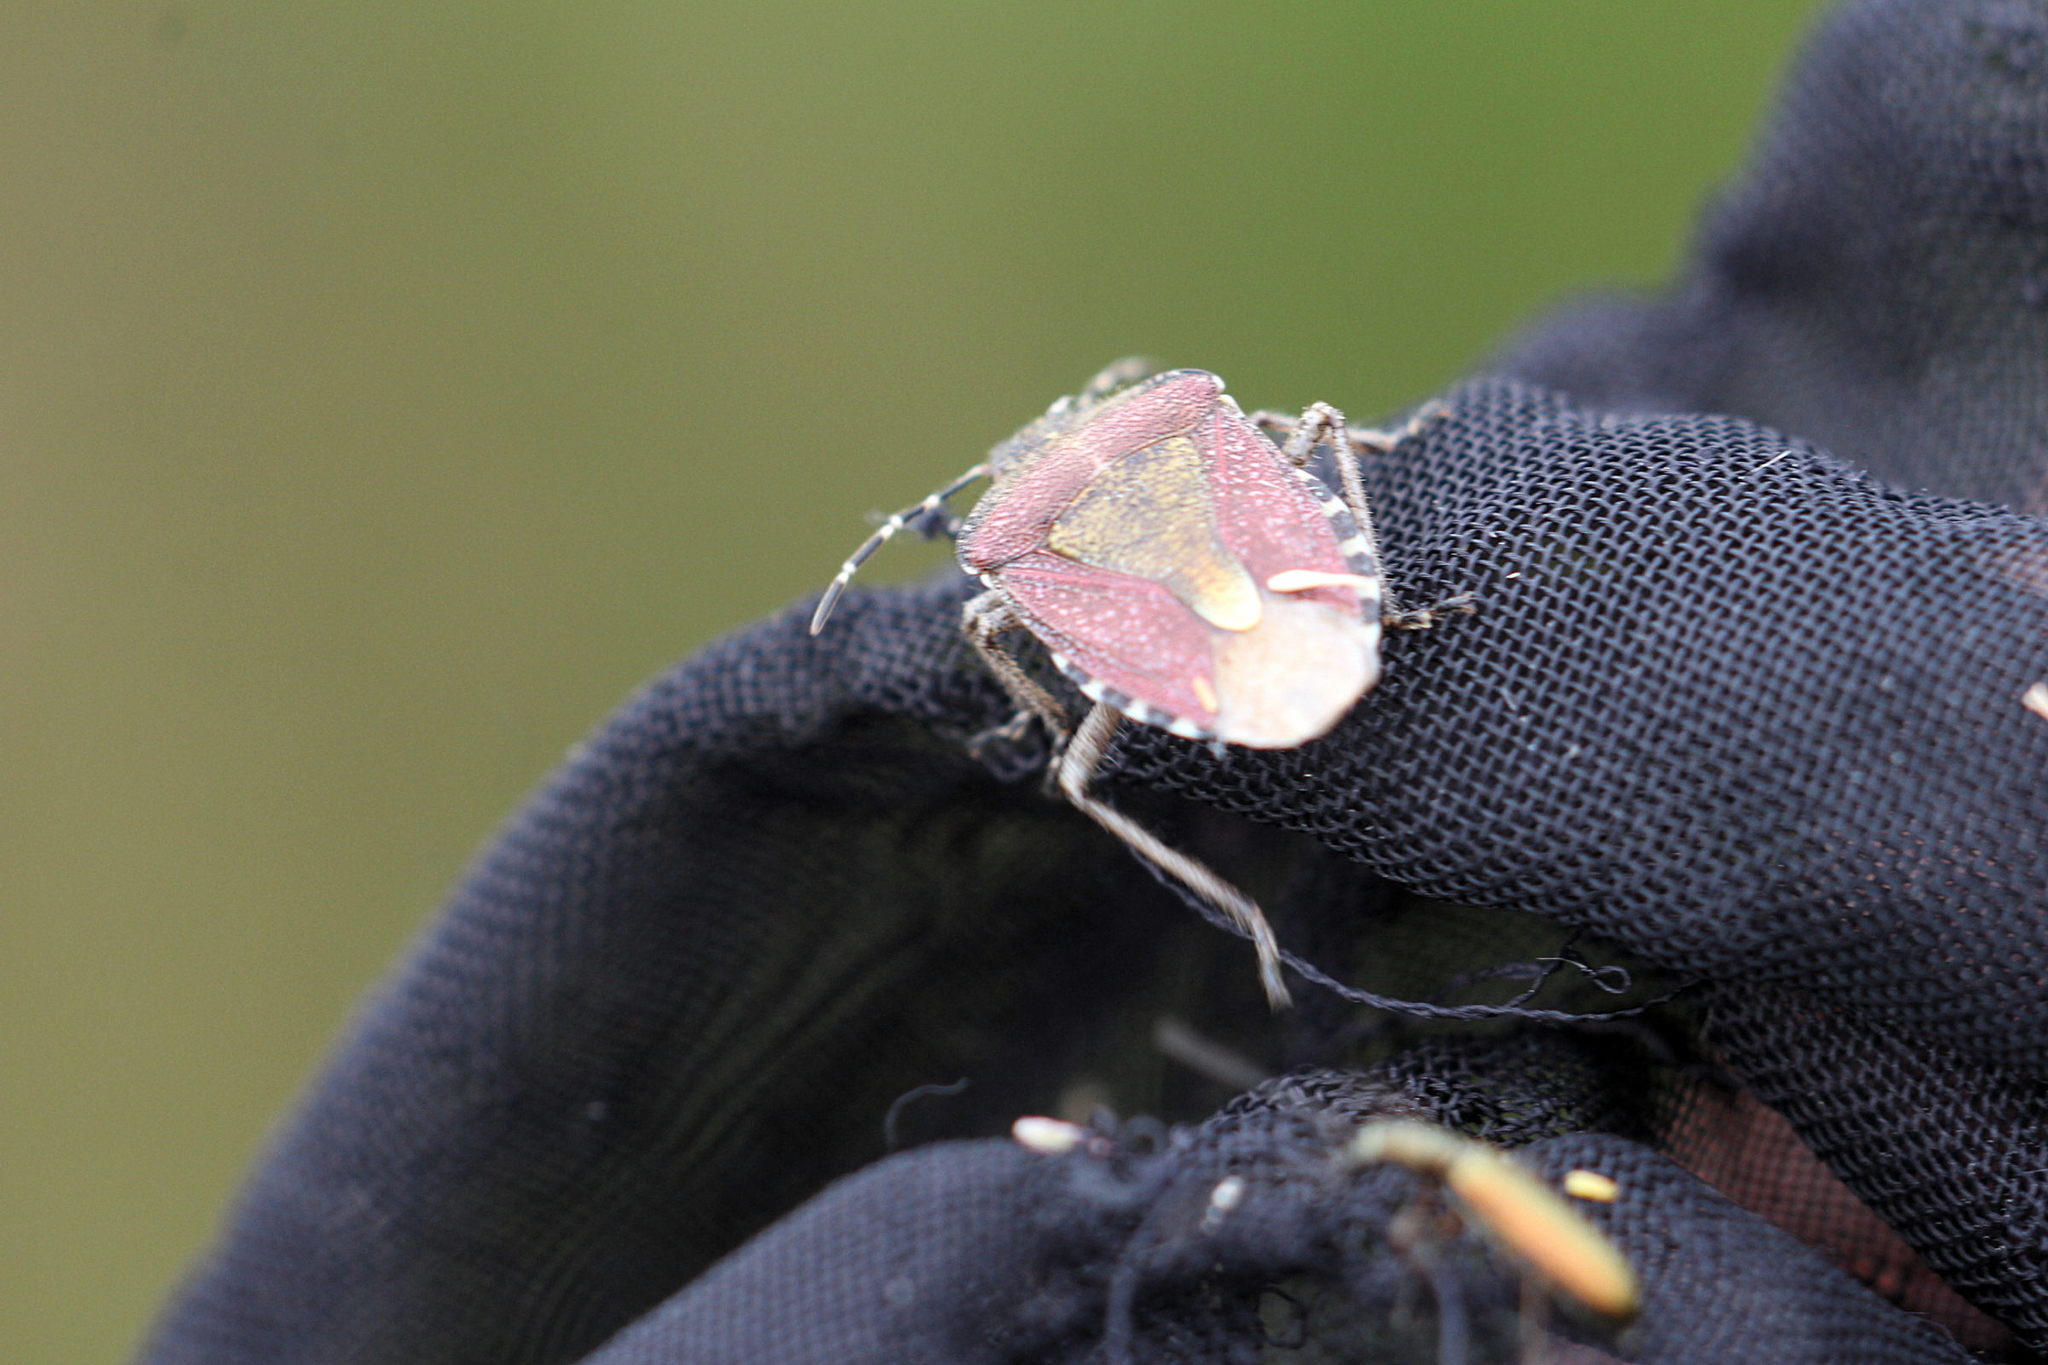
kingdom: Animalia
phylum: Arthropoda
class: Insecta
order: Hemiptera
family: Pentatomidae
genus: Dolycoris
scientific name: Dolycoris baccarum
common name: Sloe bug
